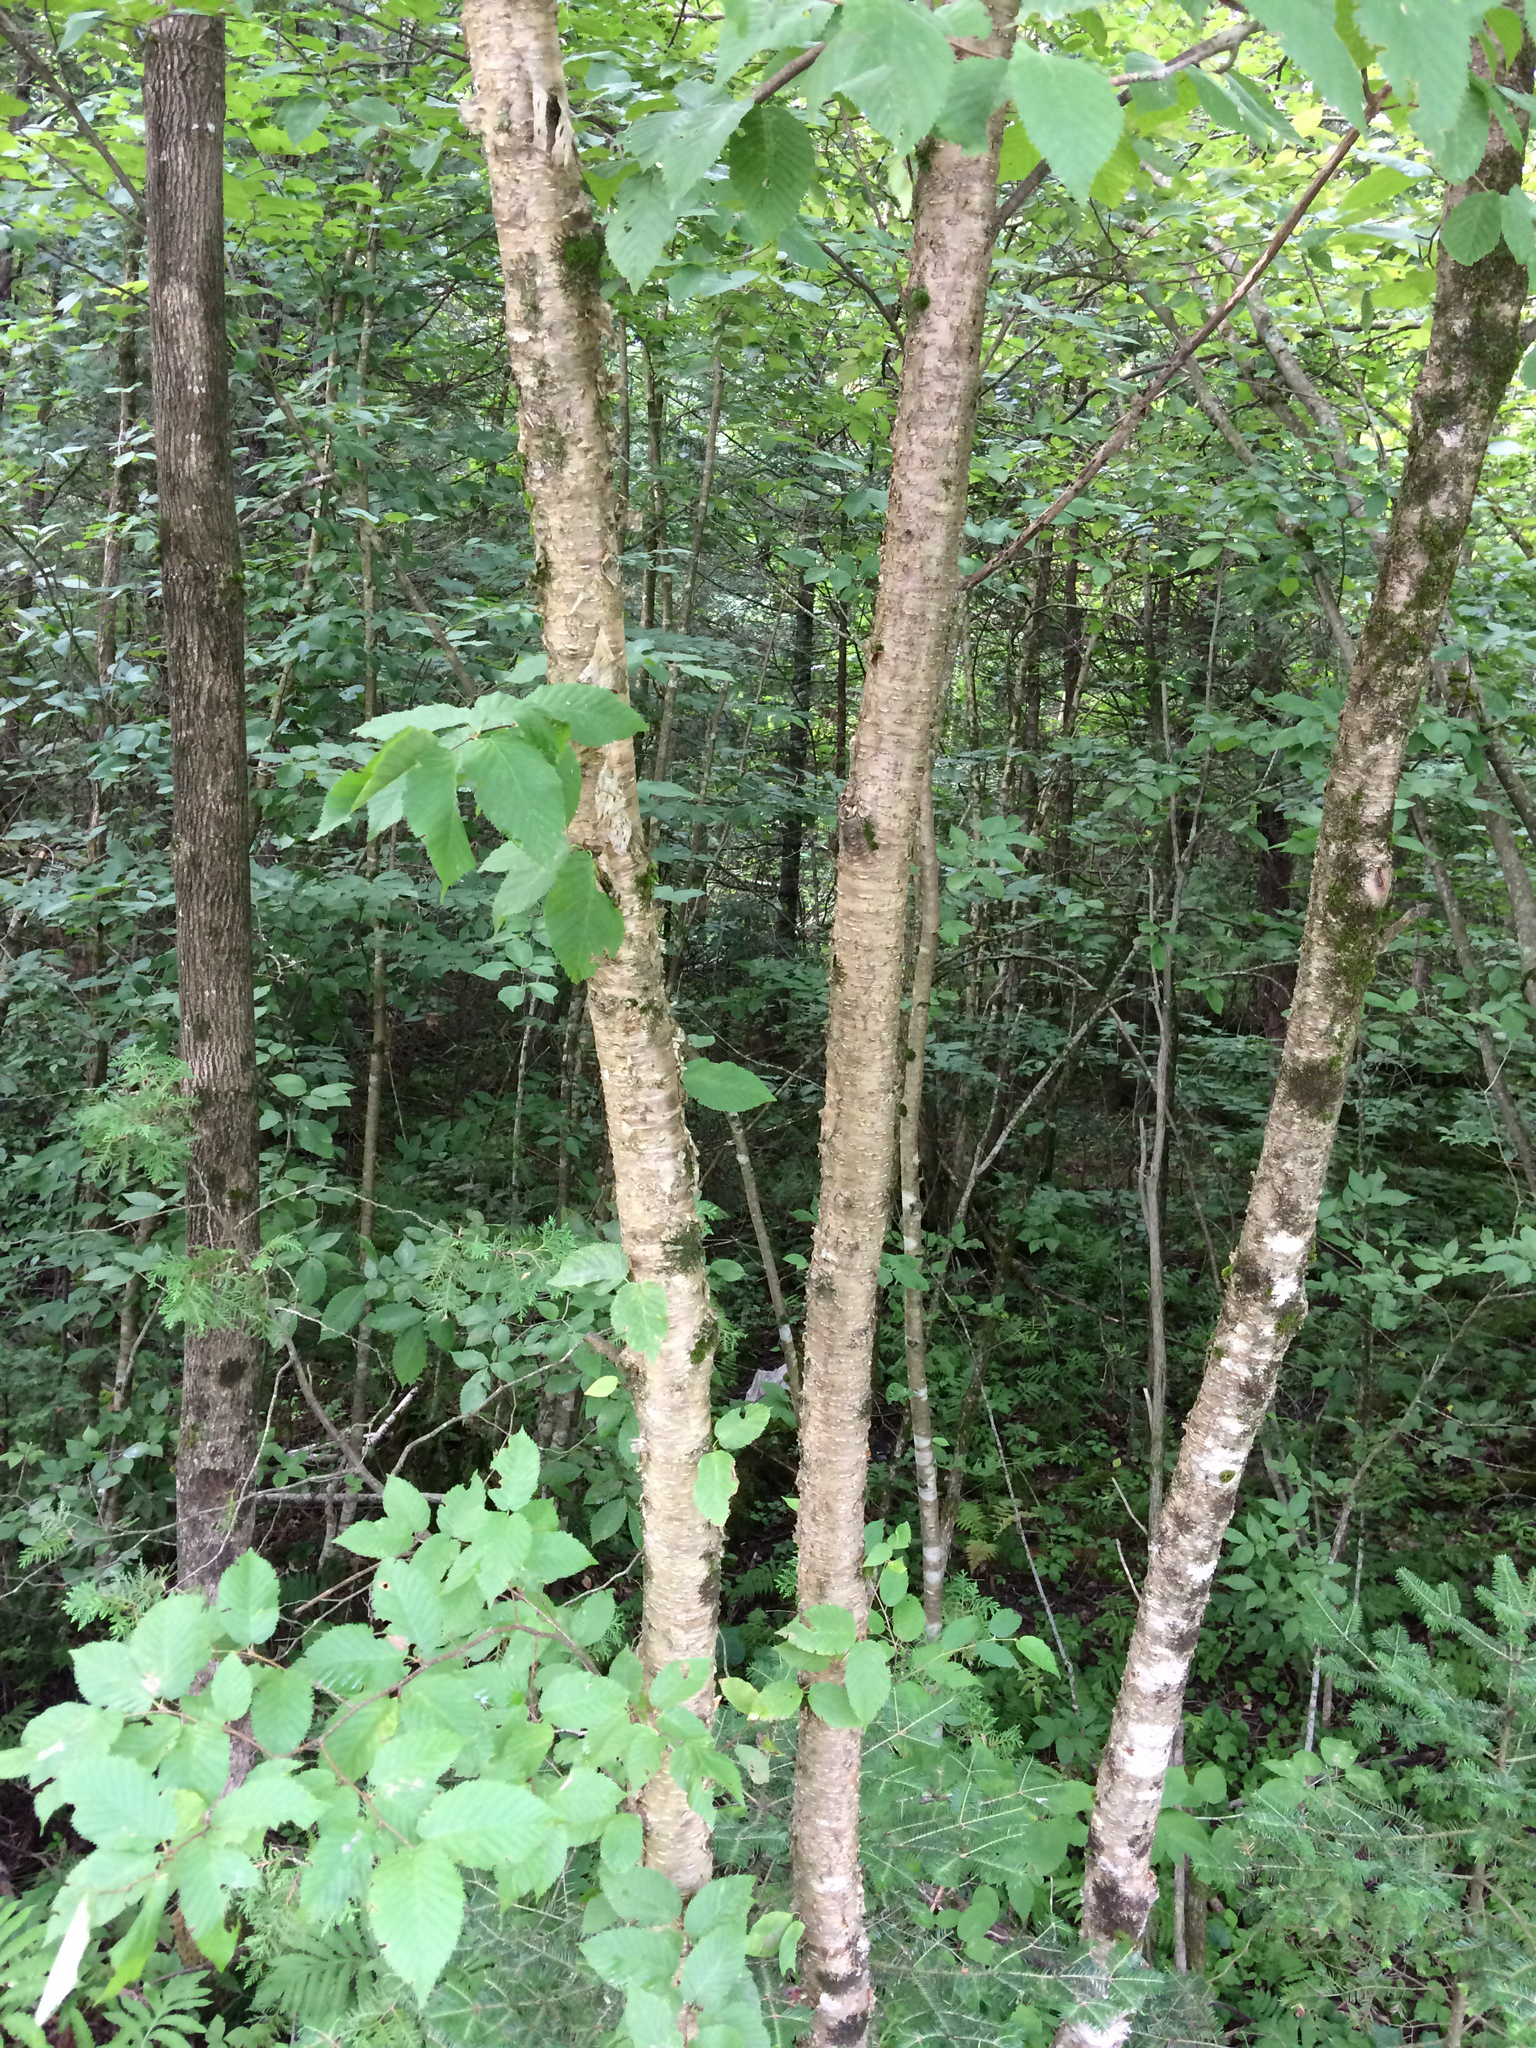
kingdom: Plantae
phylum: Tracheophyta
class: Magnoliopsida
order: Fagales
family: Betulaceae
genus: Betula
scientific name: Betula alleghaniensis
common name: Yellow birch
